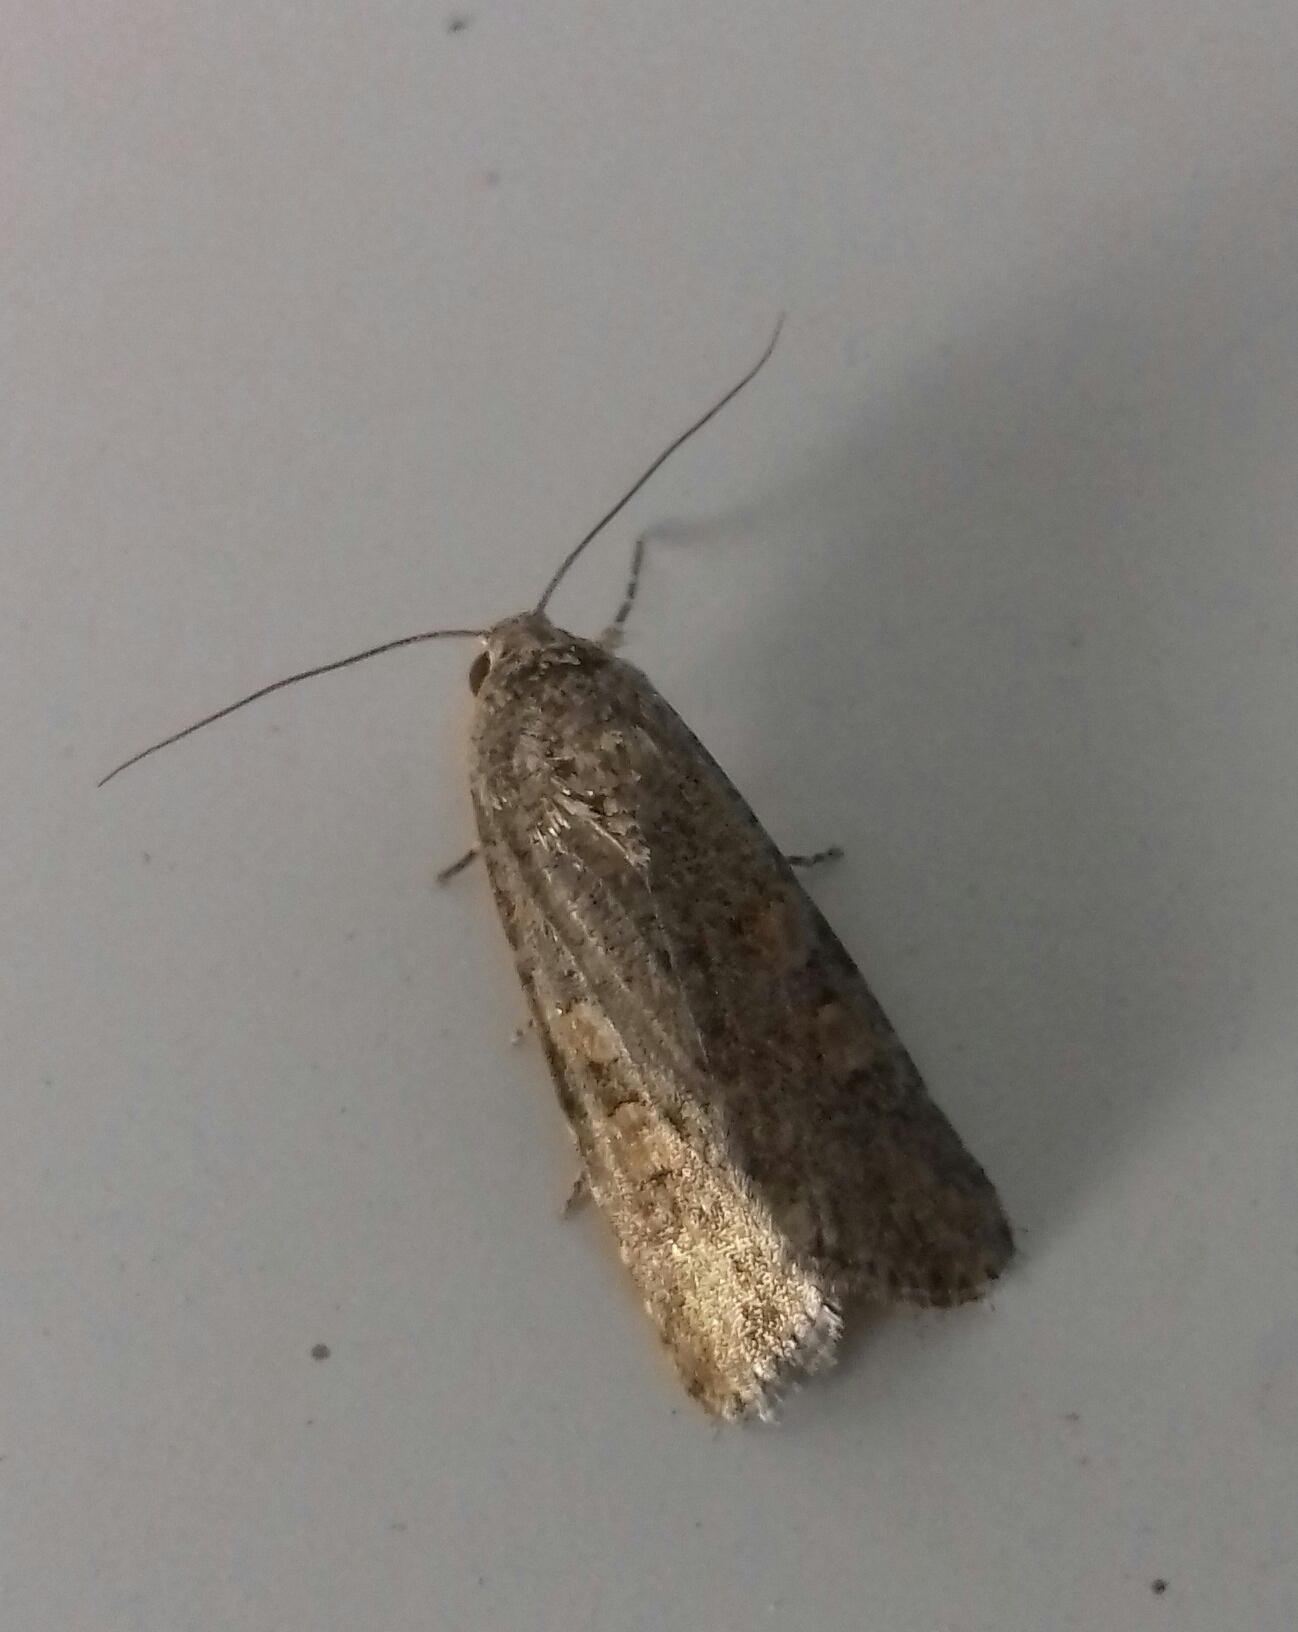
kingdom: Animalia
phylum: Arthropoda
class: Insecta
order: Lepidoptera
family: Noctuidae
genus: Spodoptera
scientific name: Spodoptera exigua
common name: Beet armyworm
